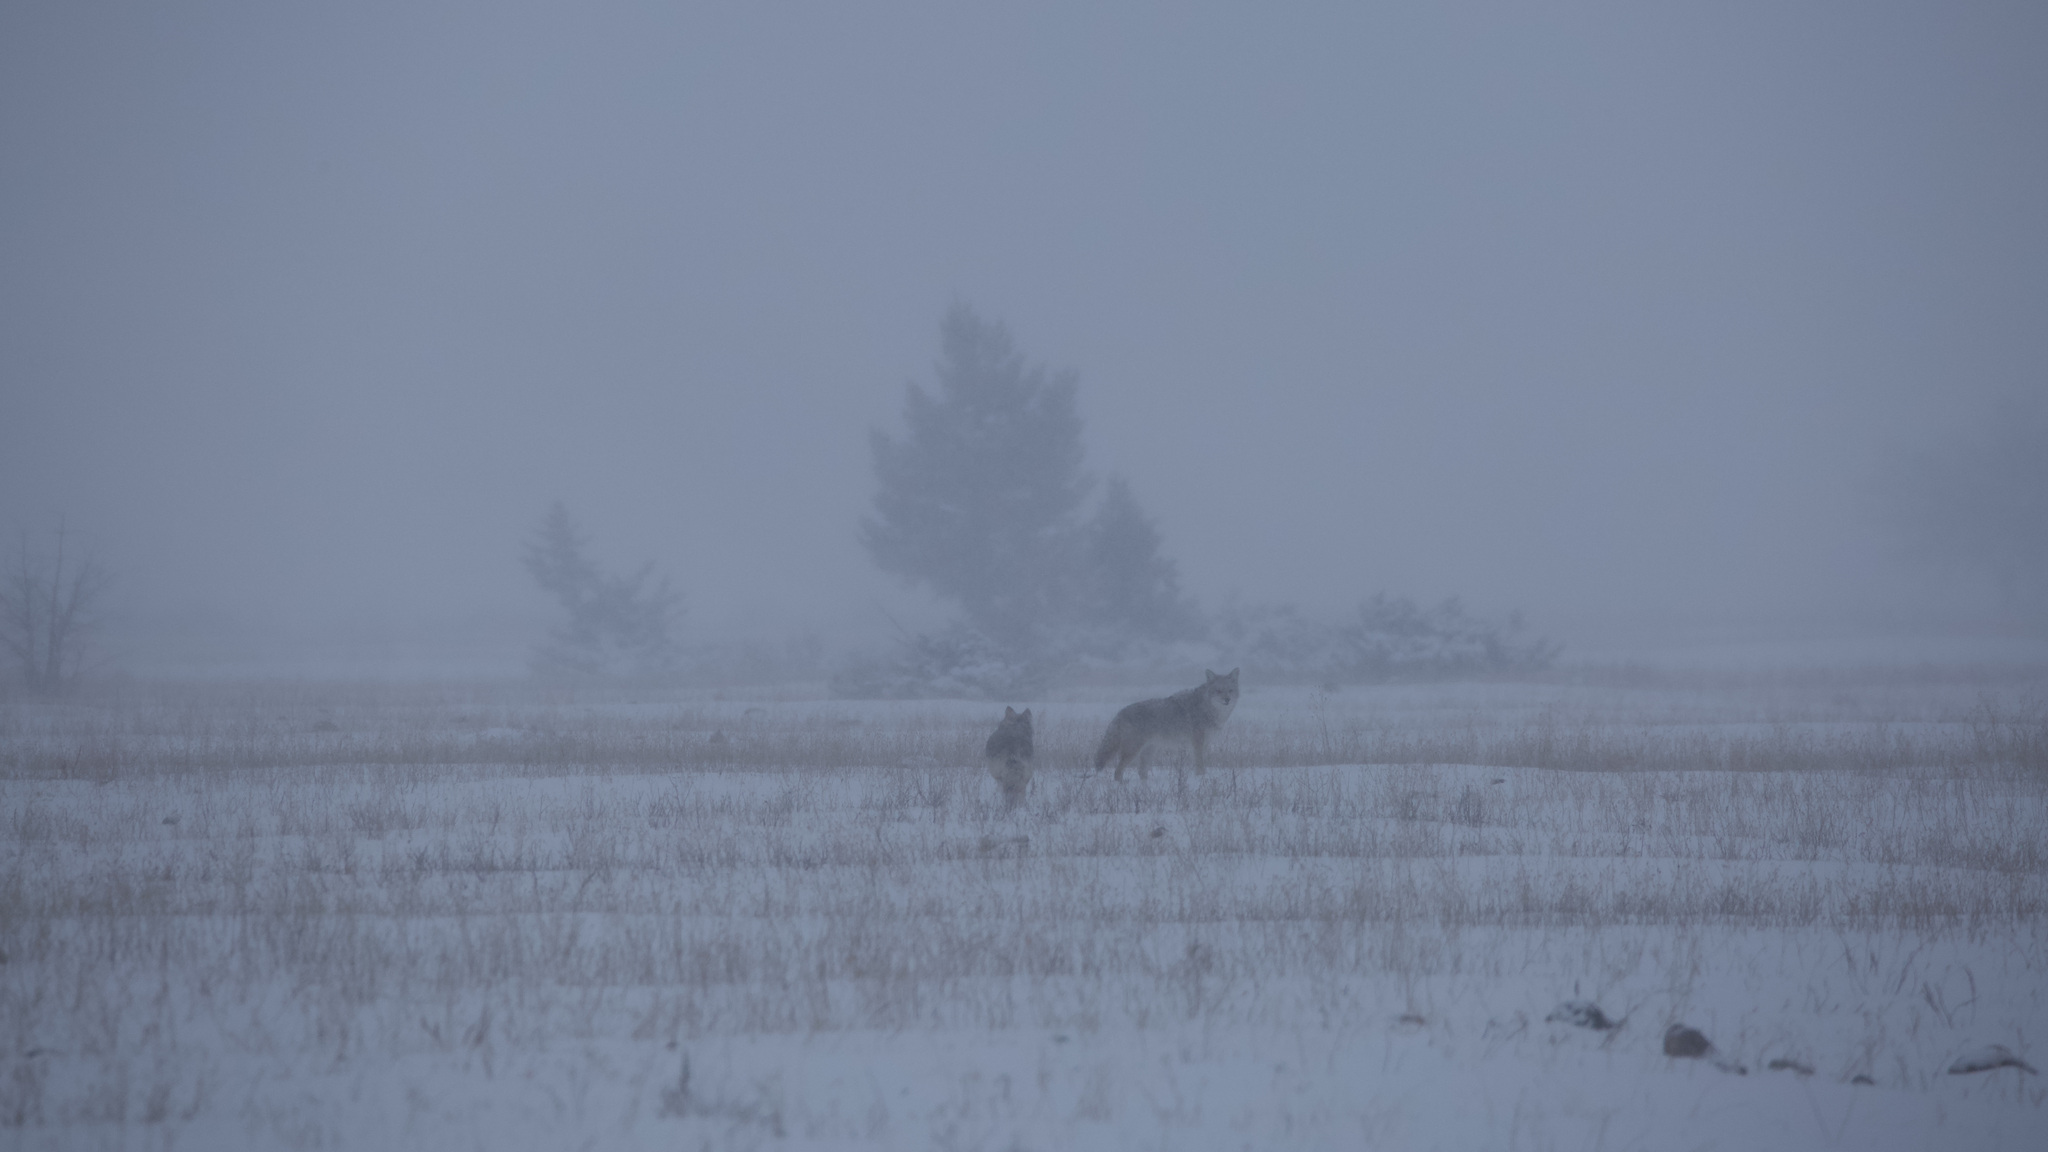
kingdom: Animalia
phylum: Chordata
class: Mammalia
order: Carnivora
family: Canidae
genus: Canis
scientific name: Canis latrans
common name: Coyote
